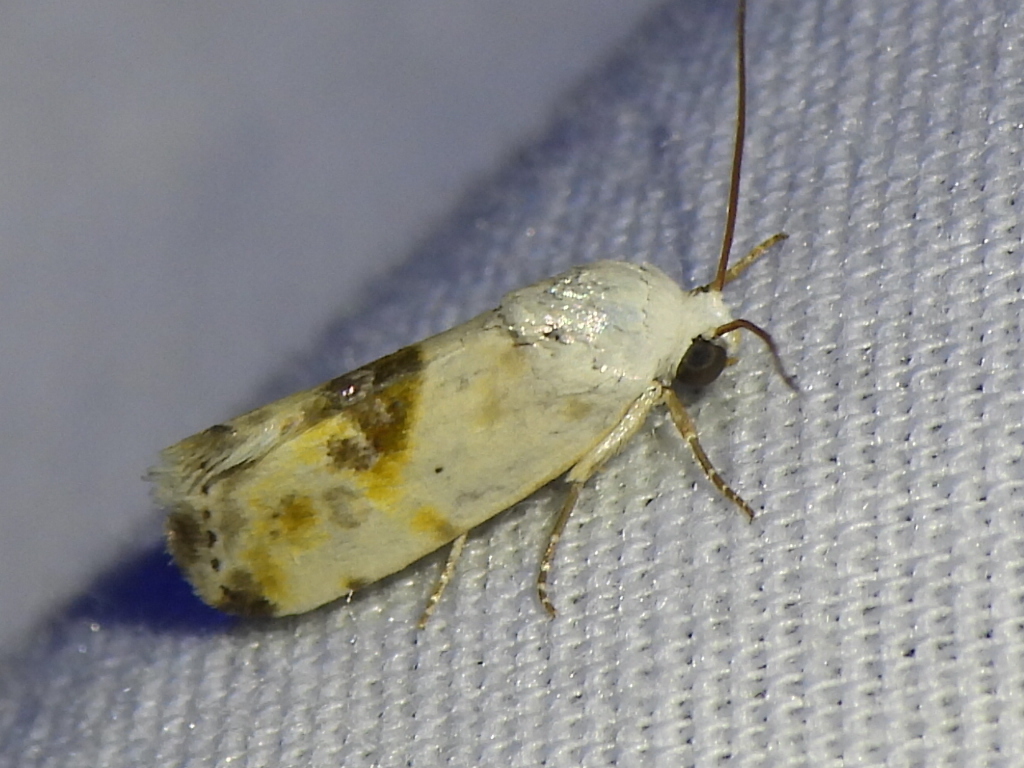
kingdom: Animalia
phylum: Arthropoda
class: Insecta
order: Lepidoptera
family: Noctuidae
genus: Acontia
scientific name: Acontia candefacta
